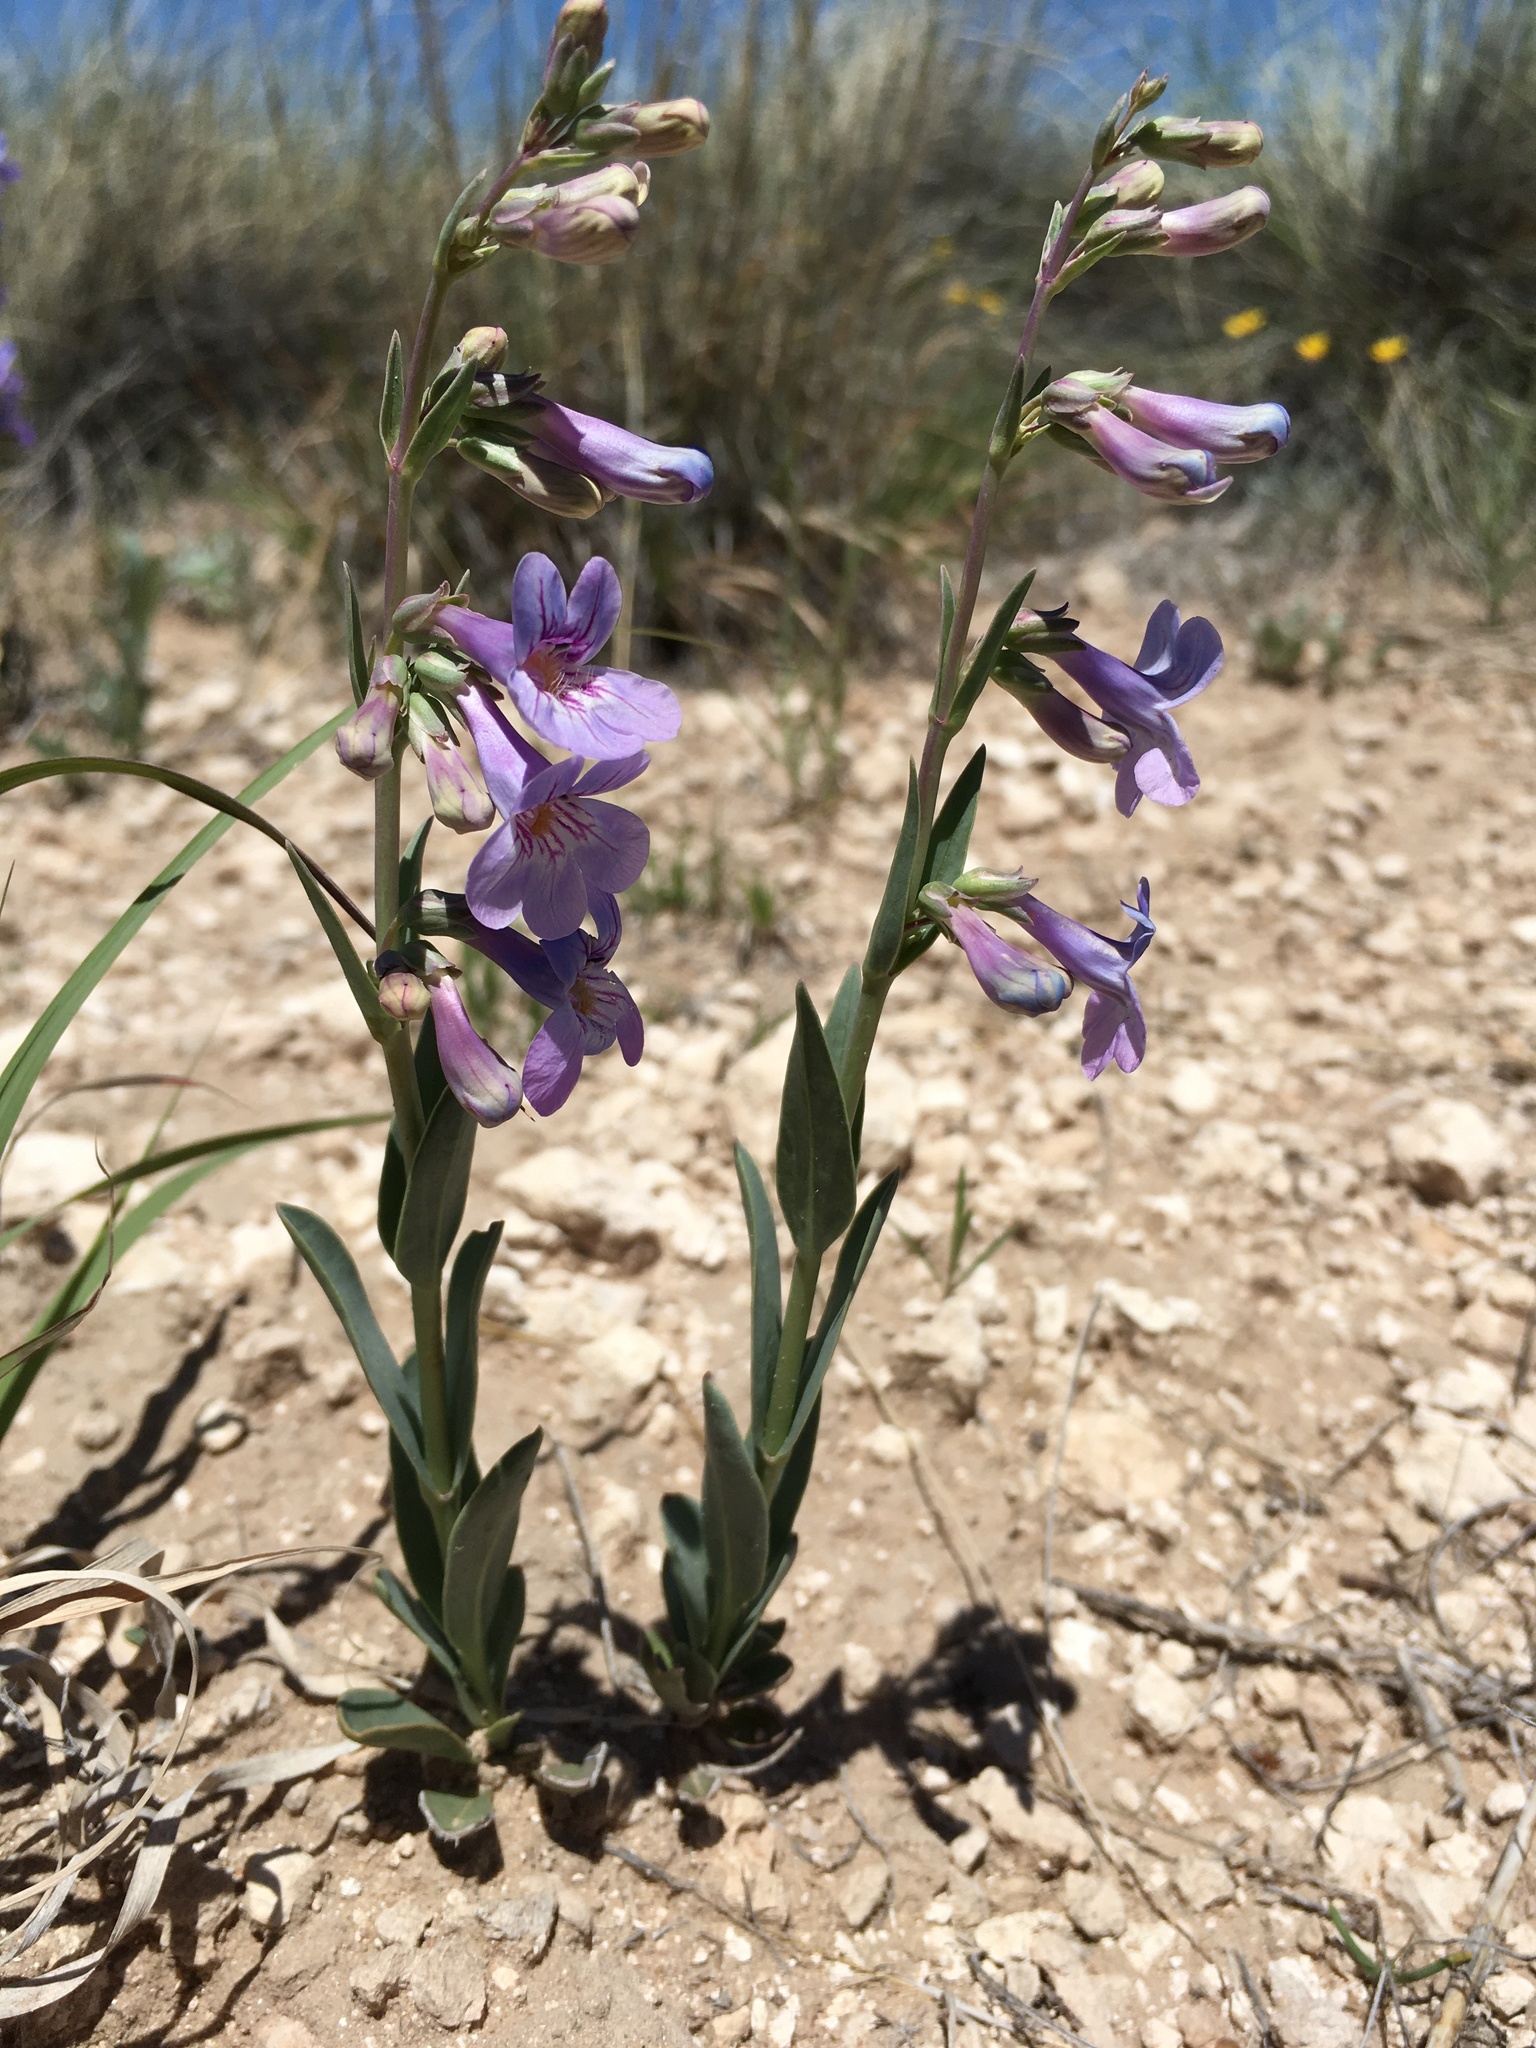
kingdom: Plantae
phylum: Tracheophyta
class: Magnoliopsida
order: Lamiales
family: Plantaginaceae
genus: Penstemon
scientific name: Penstemon fendleri
